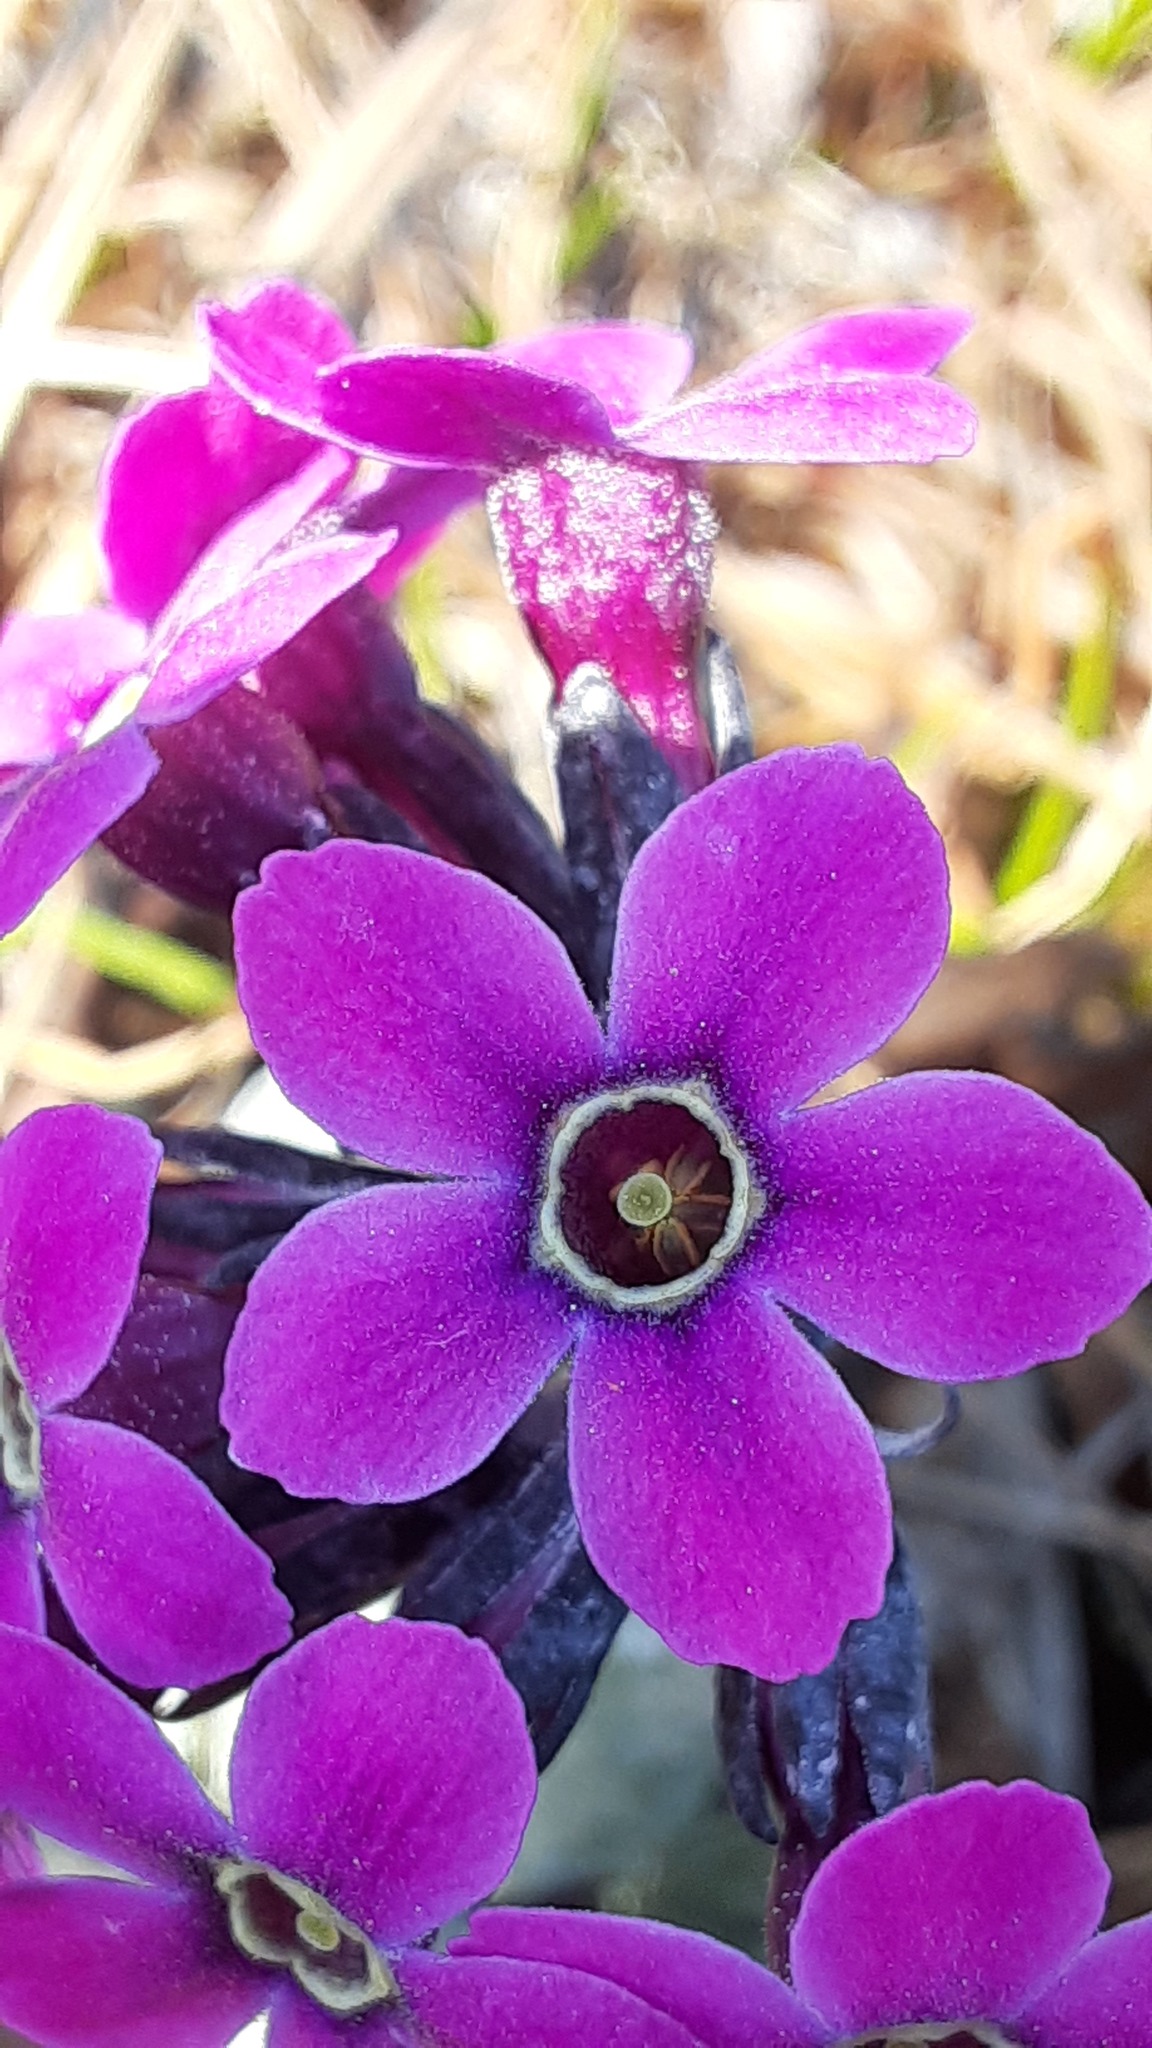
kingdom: Plantae
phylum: Tracheophyta
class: Magnoliopsida
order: Ericales
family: Primulaceae
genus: Primula
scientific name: Primula pumila
